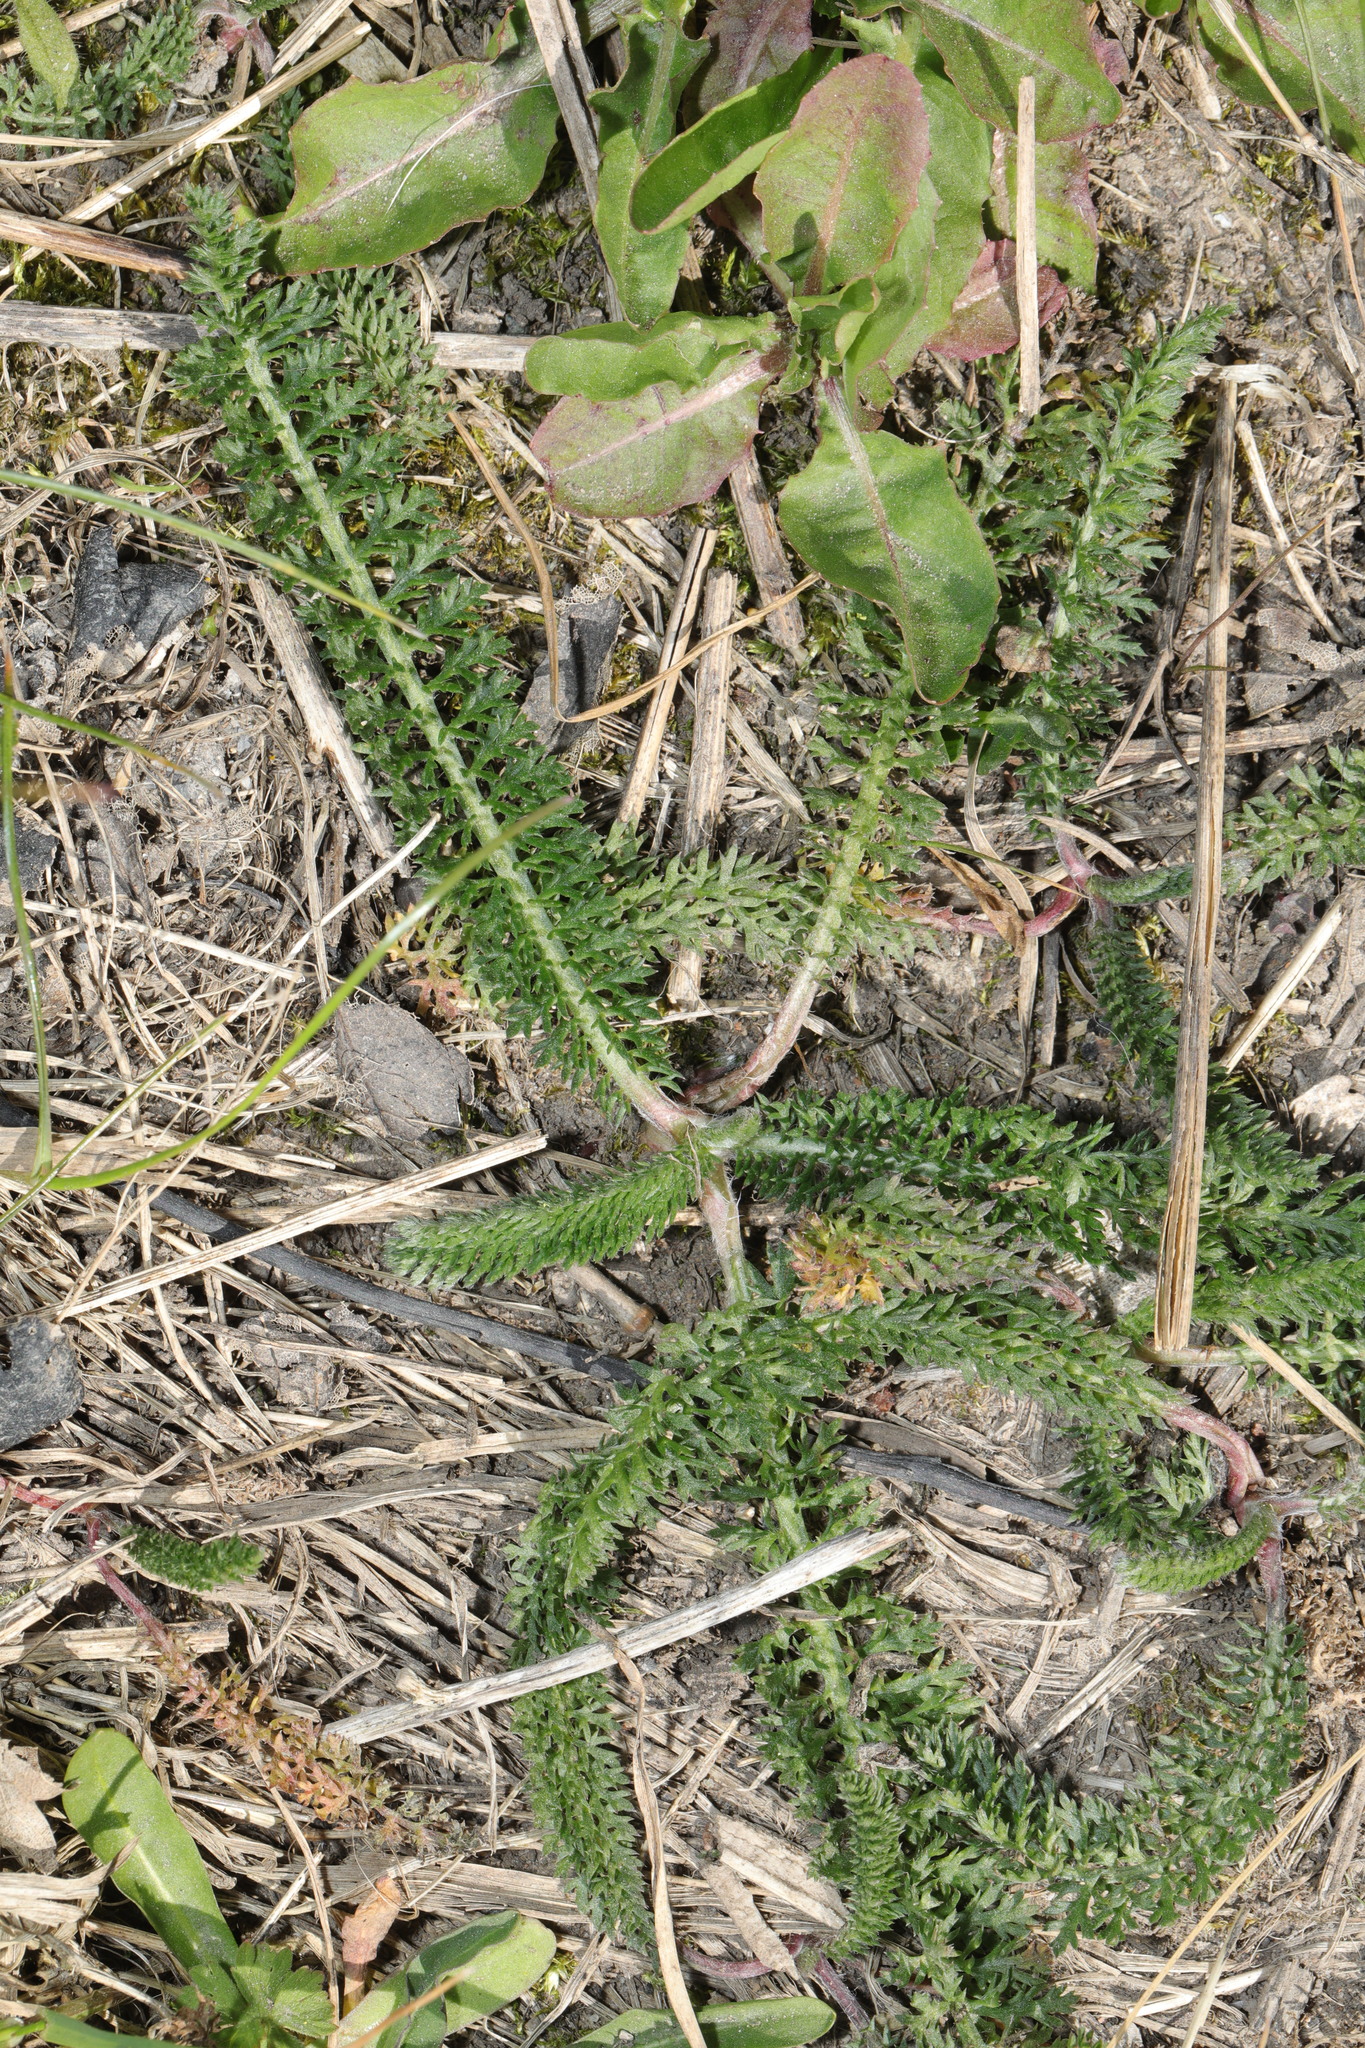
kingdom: Plantae
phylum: Tracheophyta
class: Magnoliopsida
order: Asterales
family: Asteraceae
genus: Achillea
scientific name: Achillea millefolium
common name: Yarrow
